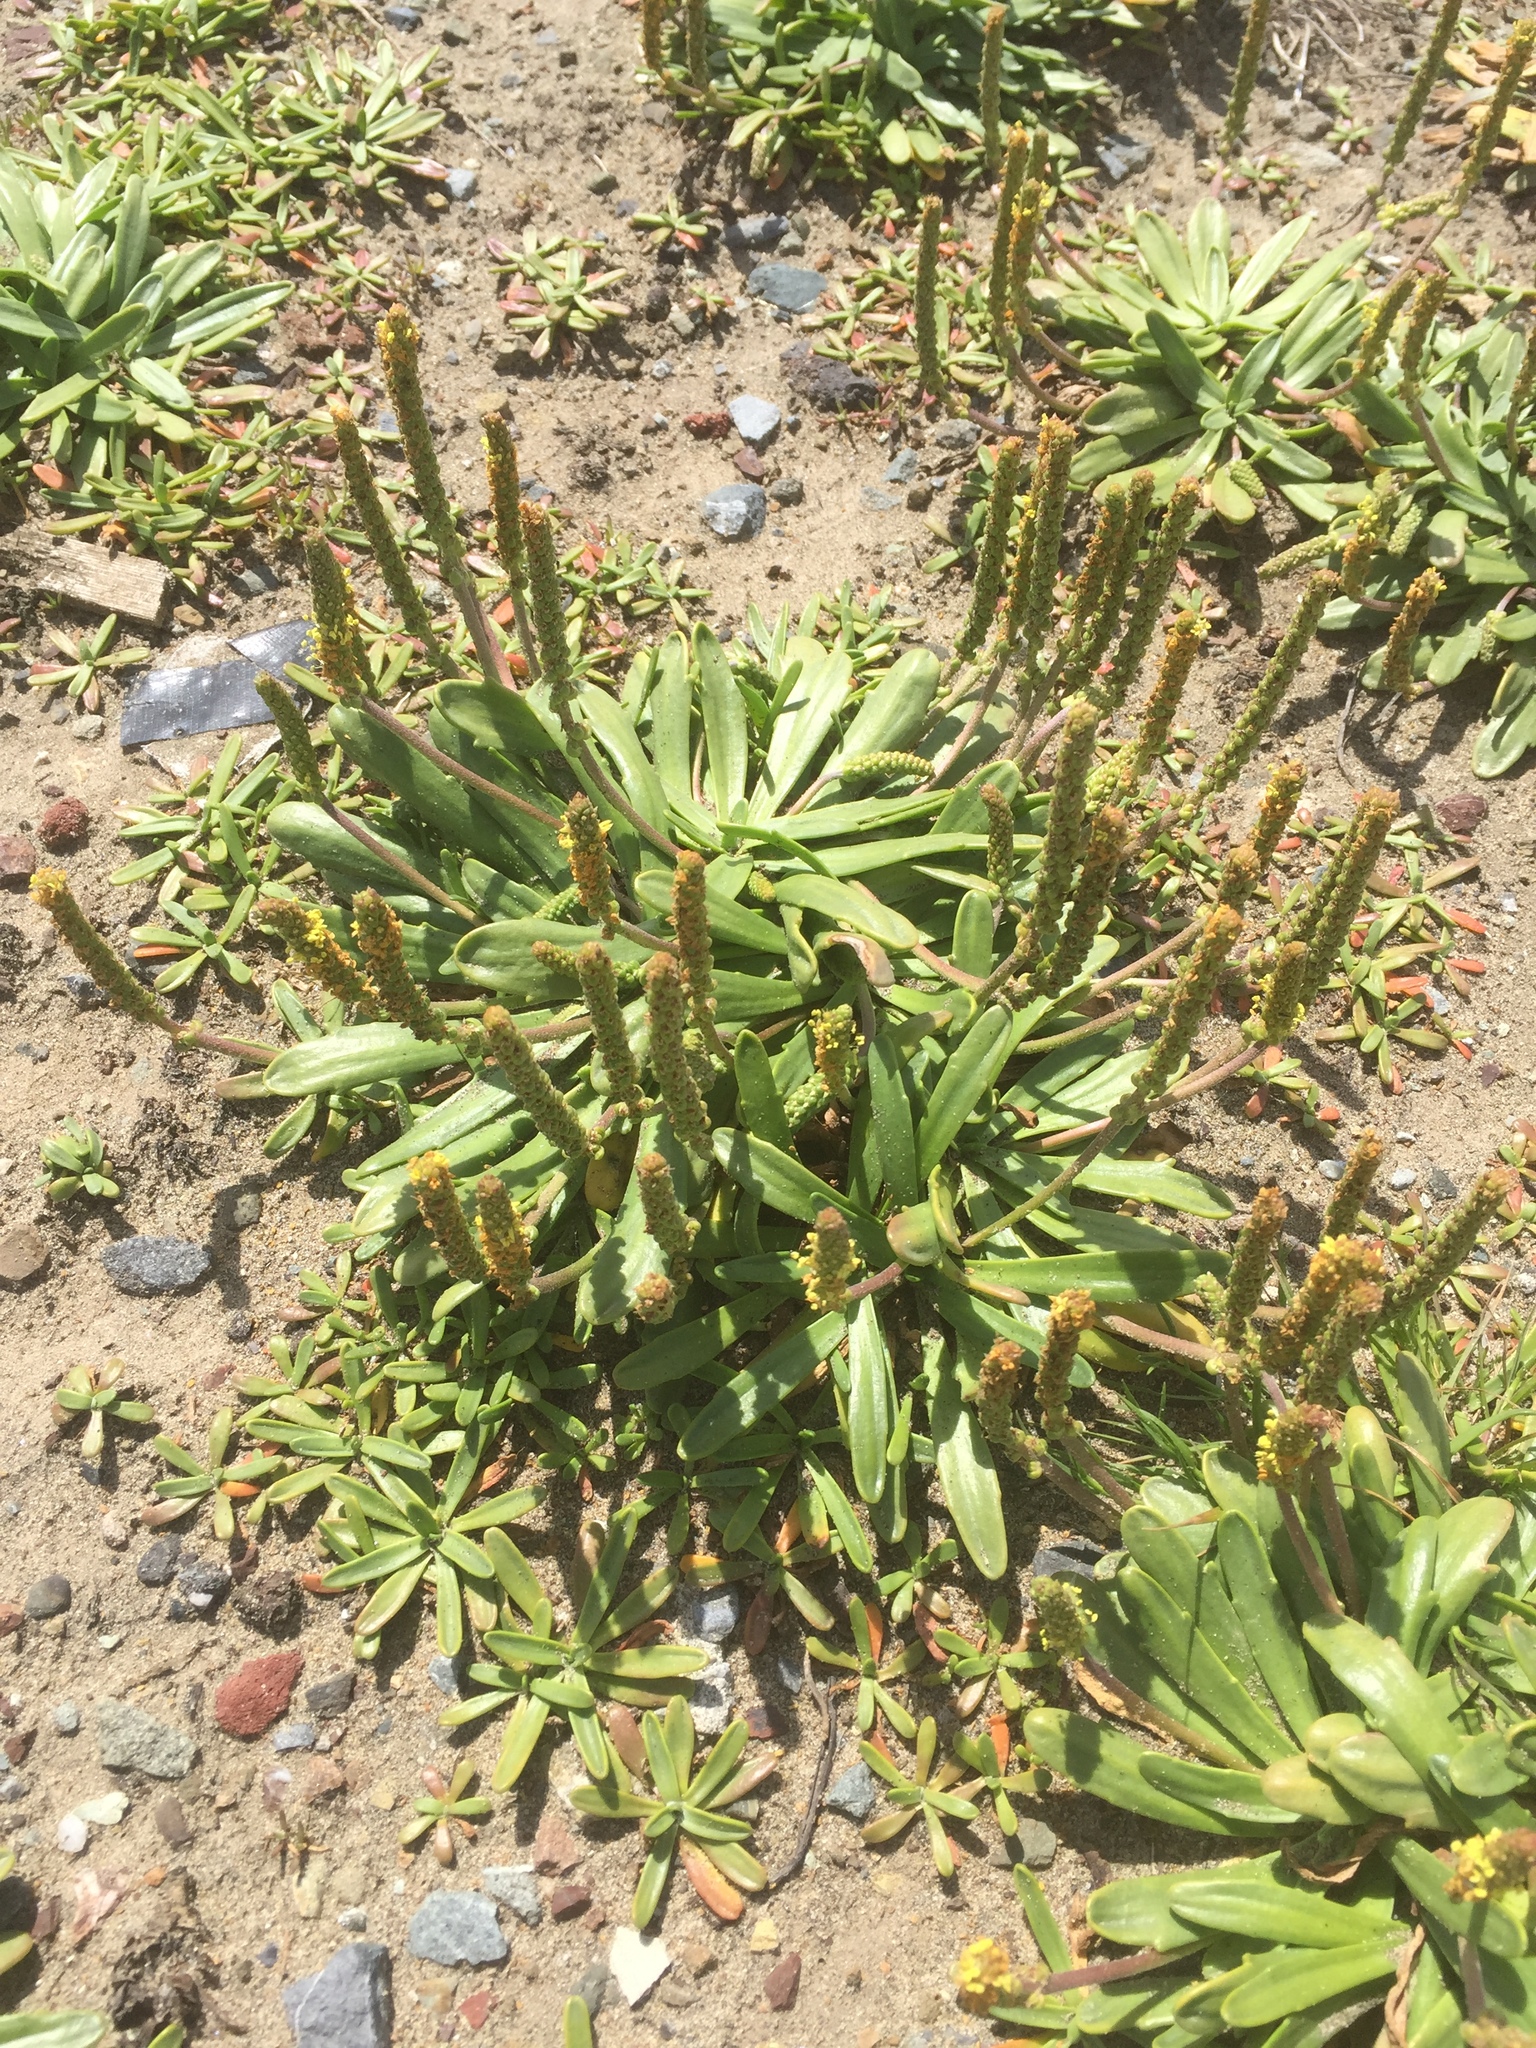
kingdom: Plantae
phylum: Tracheophyta
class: Magnoliopsida
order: Lamiales
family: Plantaginaceae
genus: Plantago
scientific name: Plantago maritima
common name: Sea plantain
